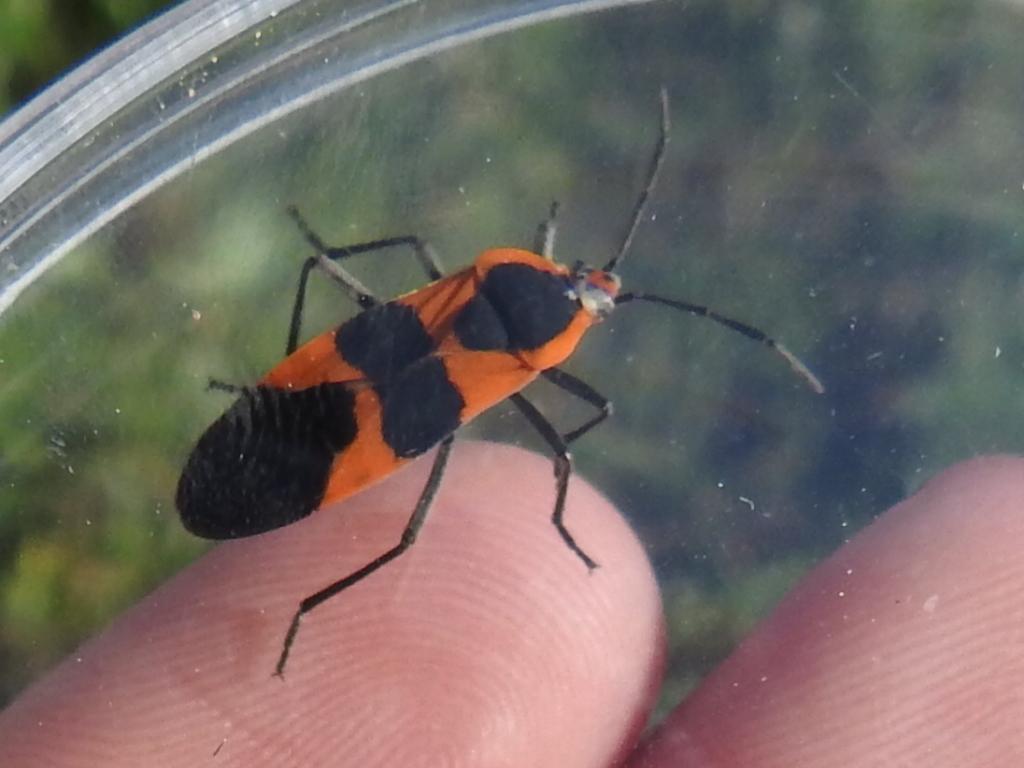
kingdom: Animalia
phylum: Arthropoda
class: Insecta
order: Hemiptera
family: Lygaeidae
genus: Oncopeltus
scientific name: Oncopeltus fasciatus
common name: Large milkweed bug
